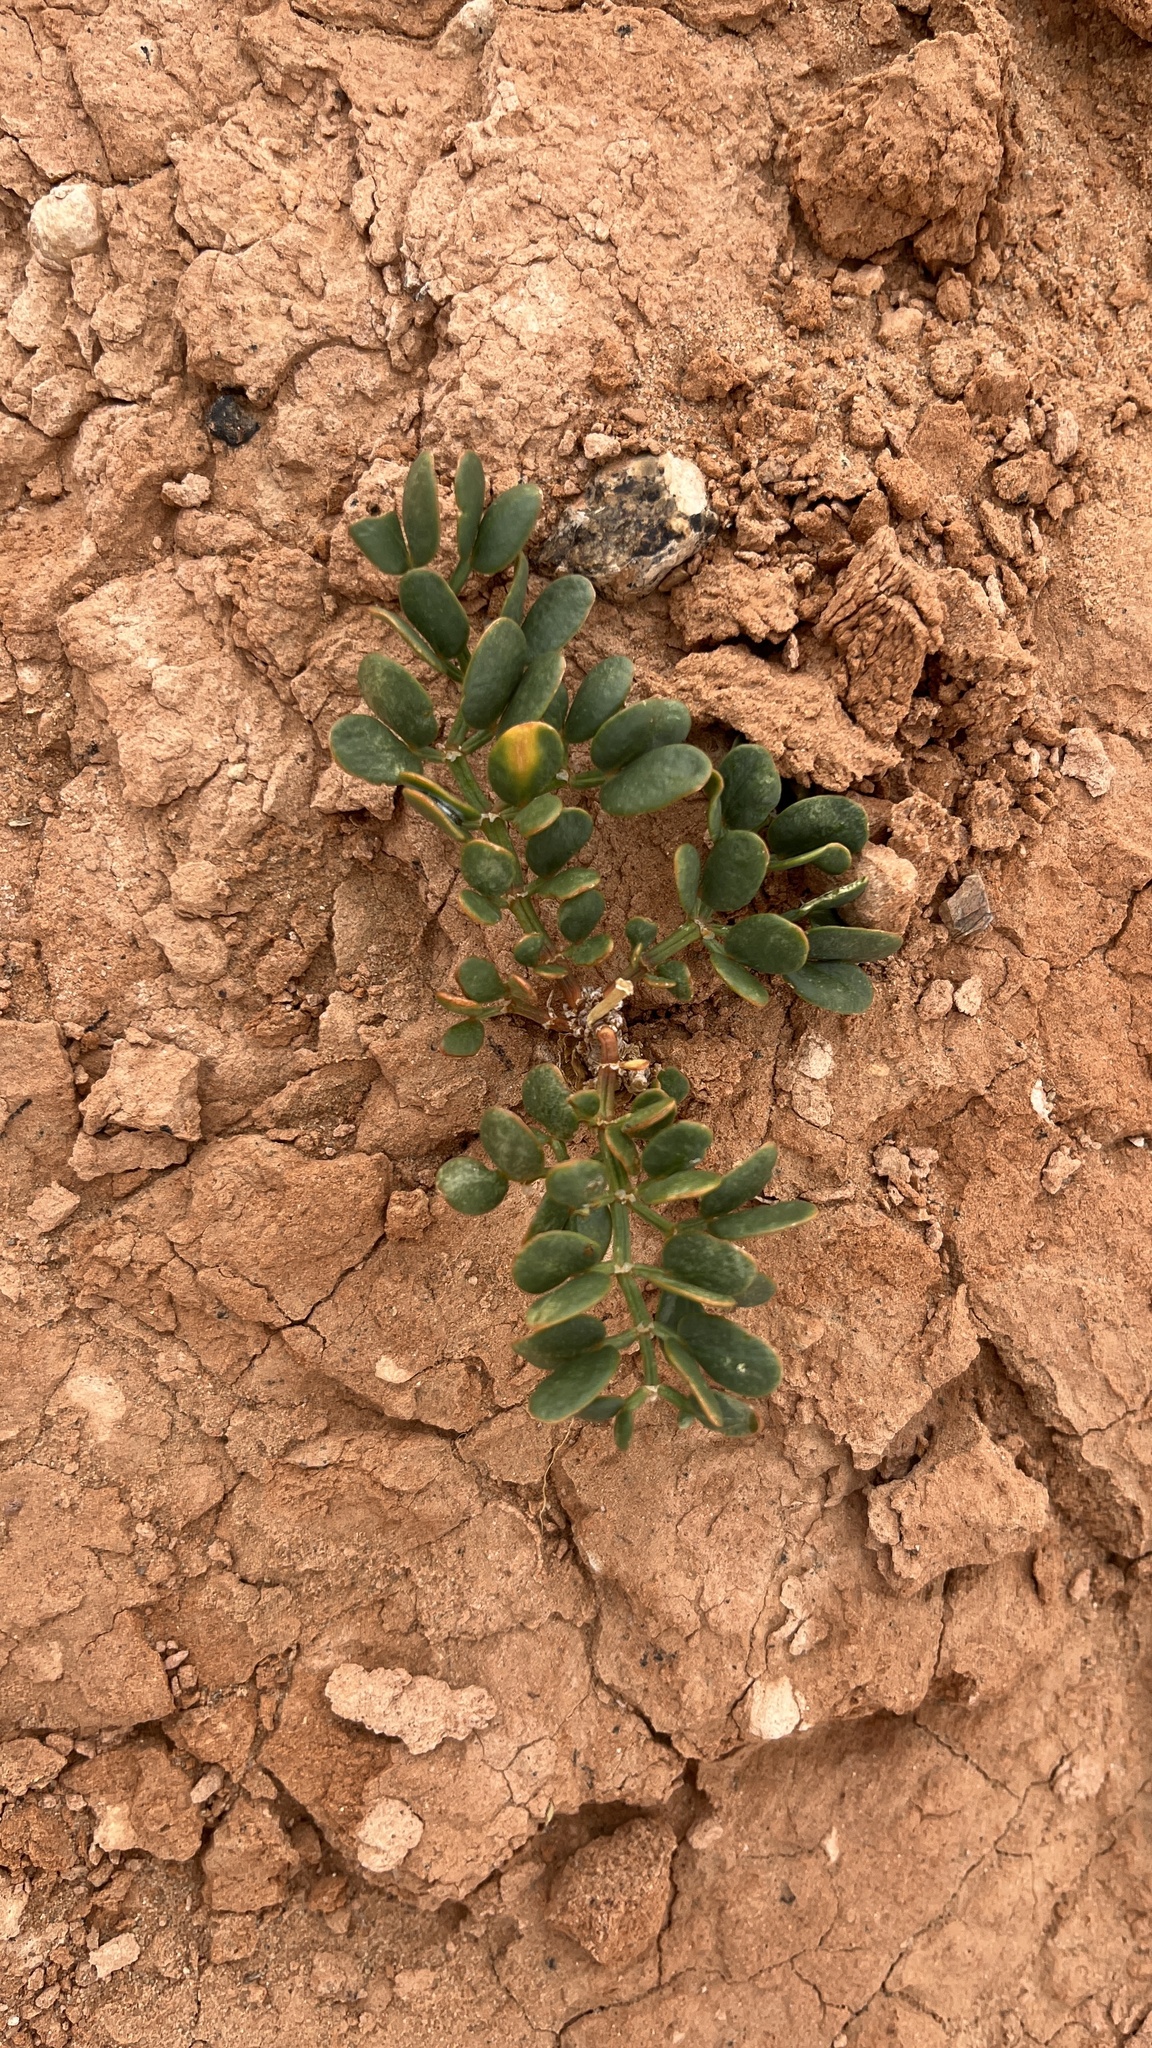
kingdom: Plantae
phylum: Tracheophyta
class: Magnoliopsida
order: Zygophyllales
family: Zygophyllaceae
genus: Zygophyllum
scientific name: Zygophyllum potaninii
